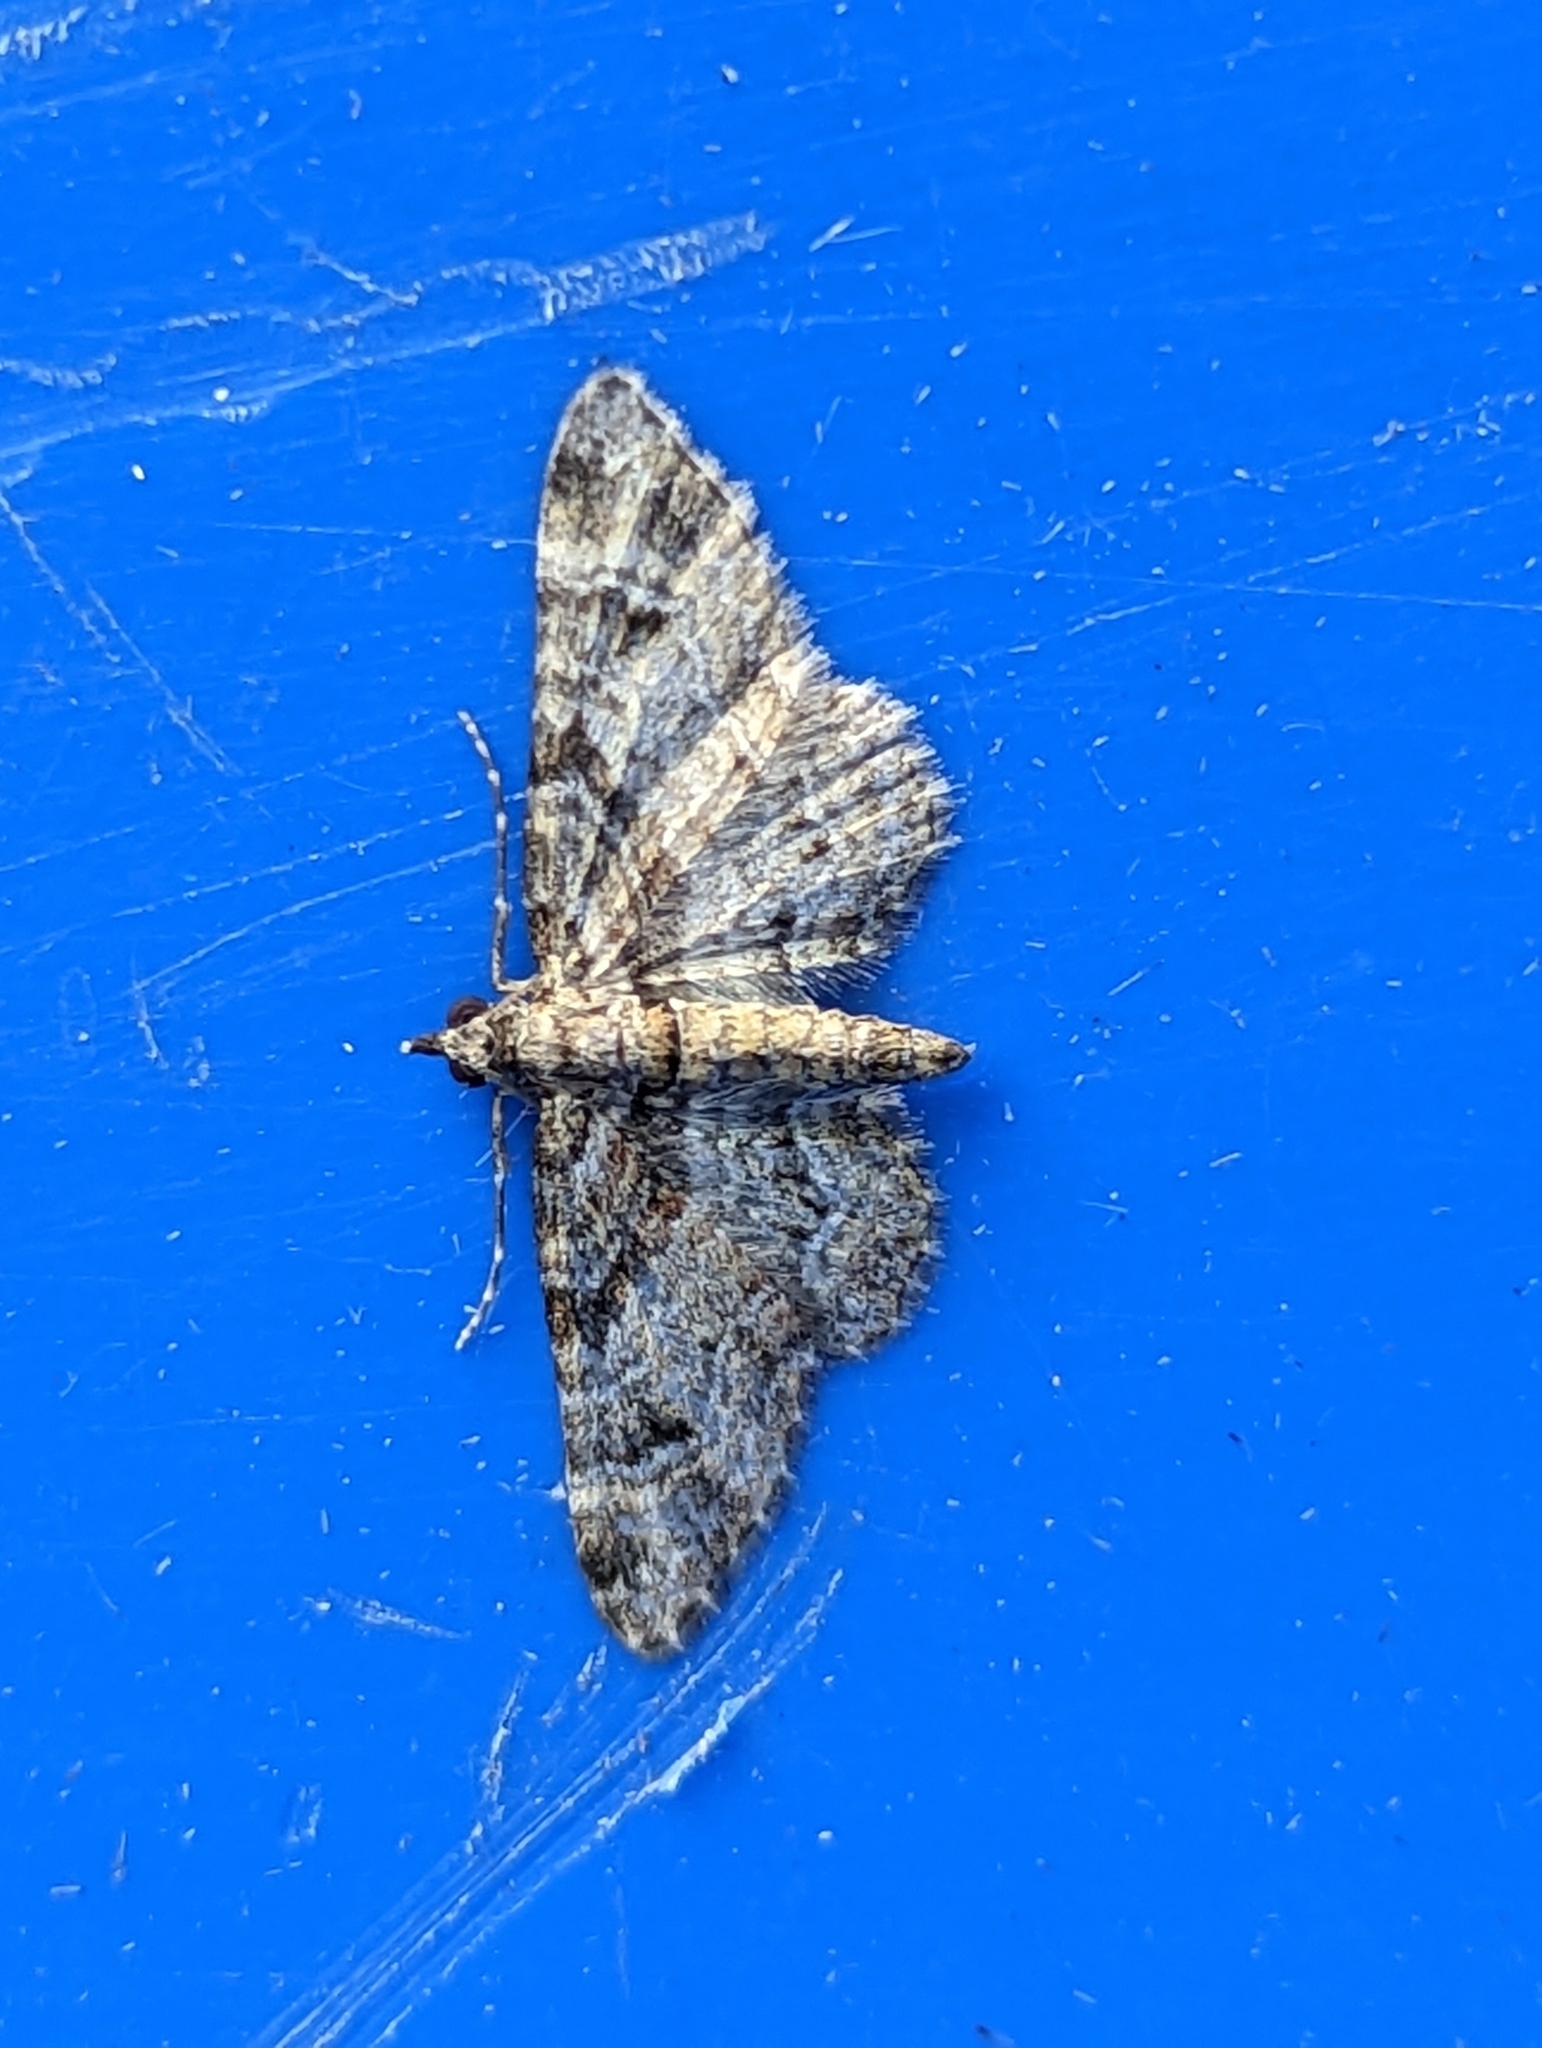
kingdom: Animalia
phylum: Arthropoda
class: Insecta
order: Lepidoptera
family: Geometridae
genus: Gymnoscelis
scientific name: Gymnoscelis rufifasciata
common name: Double-striped pug
